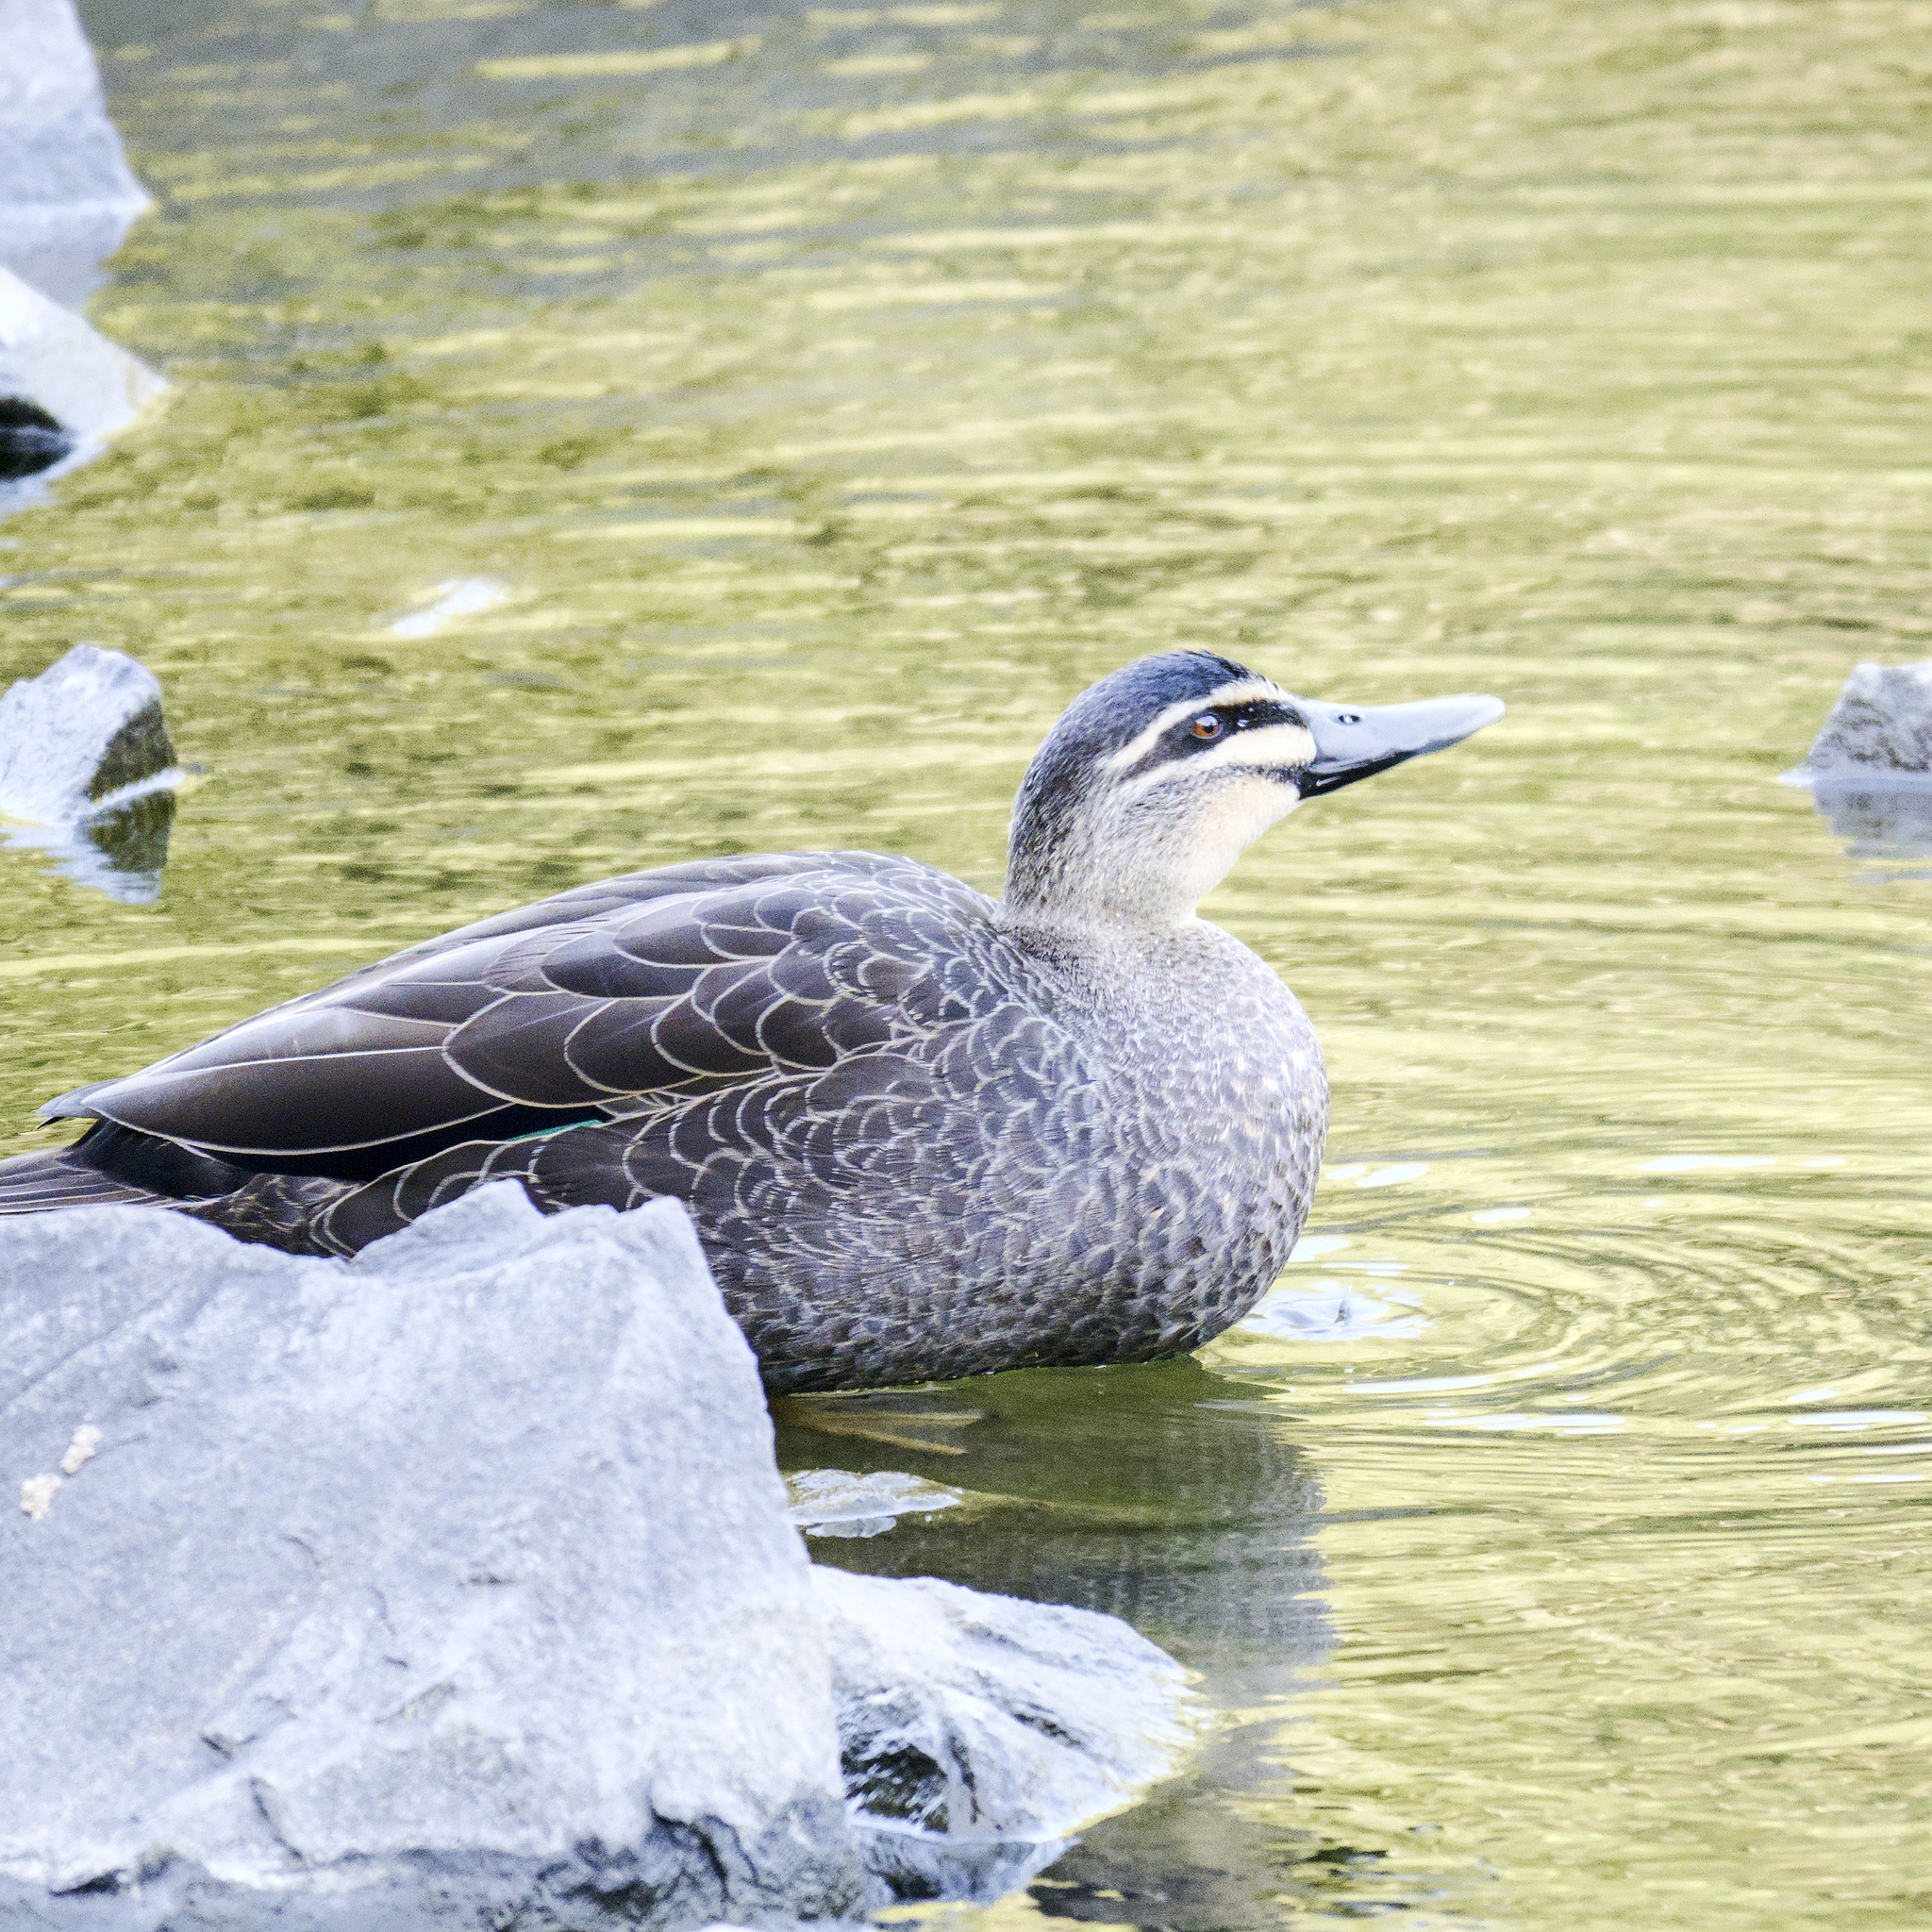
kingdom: Animalia
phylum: Chordata
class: Aves
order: Anseriformes
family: Anatidae
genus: Anas
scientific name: Anas superciliosa
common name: Pacific black duck
